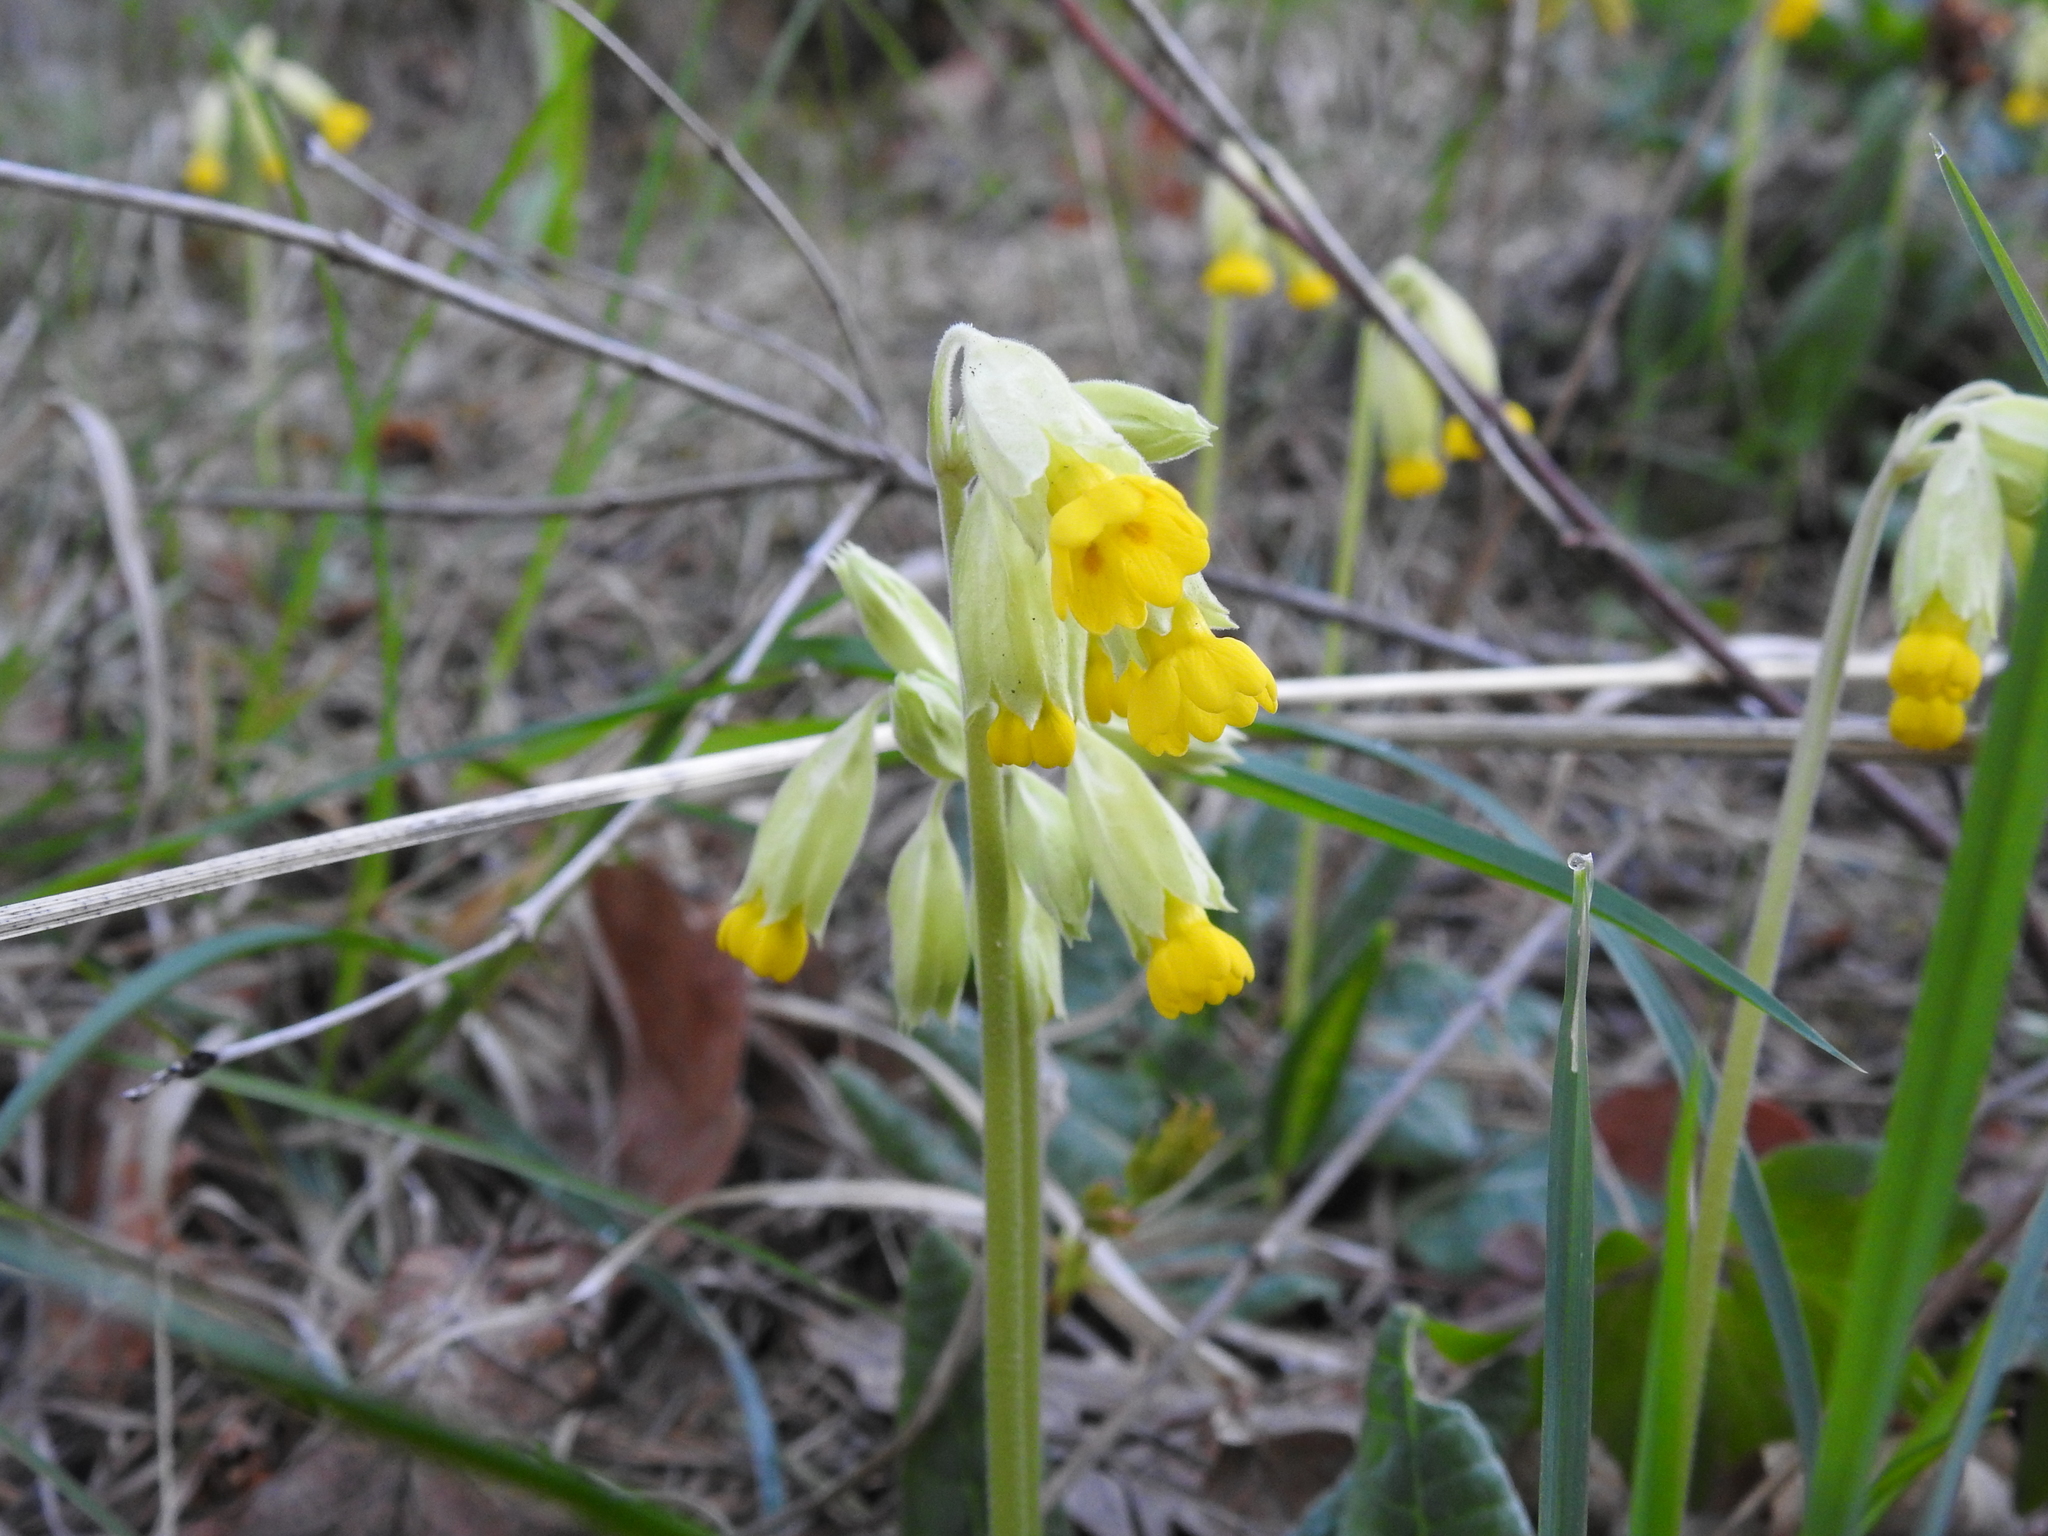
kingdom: Plantae
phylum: Tracheophyta
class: Magnoliopsida
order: Ericales
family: Primulaceae
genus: Primula
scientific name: Primula veris
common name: Cowslip
